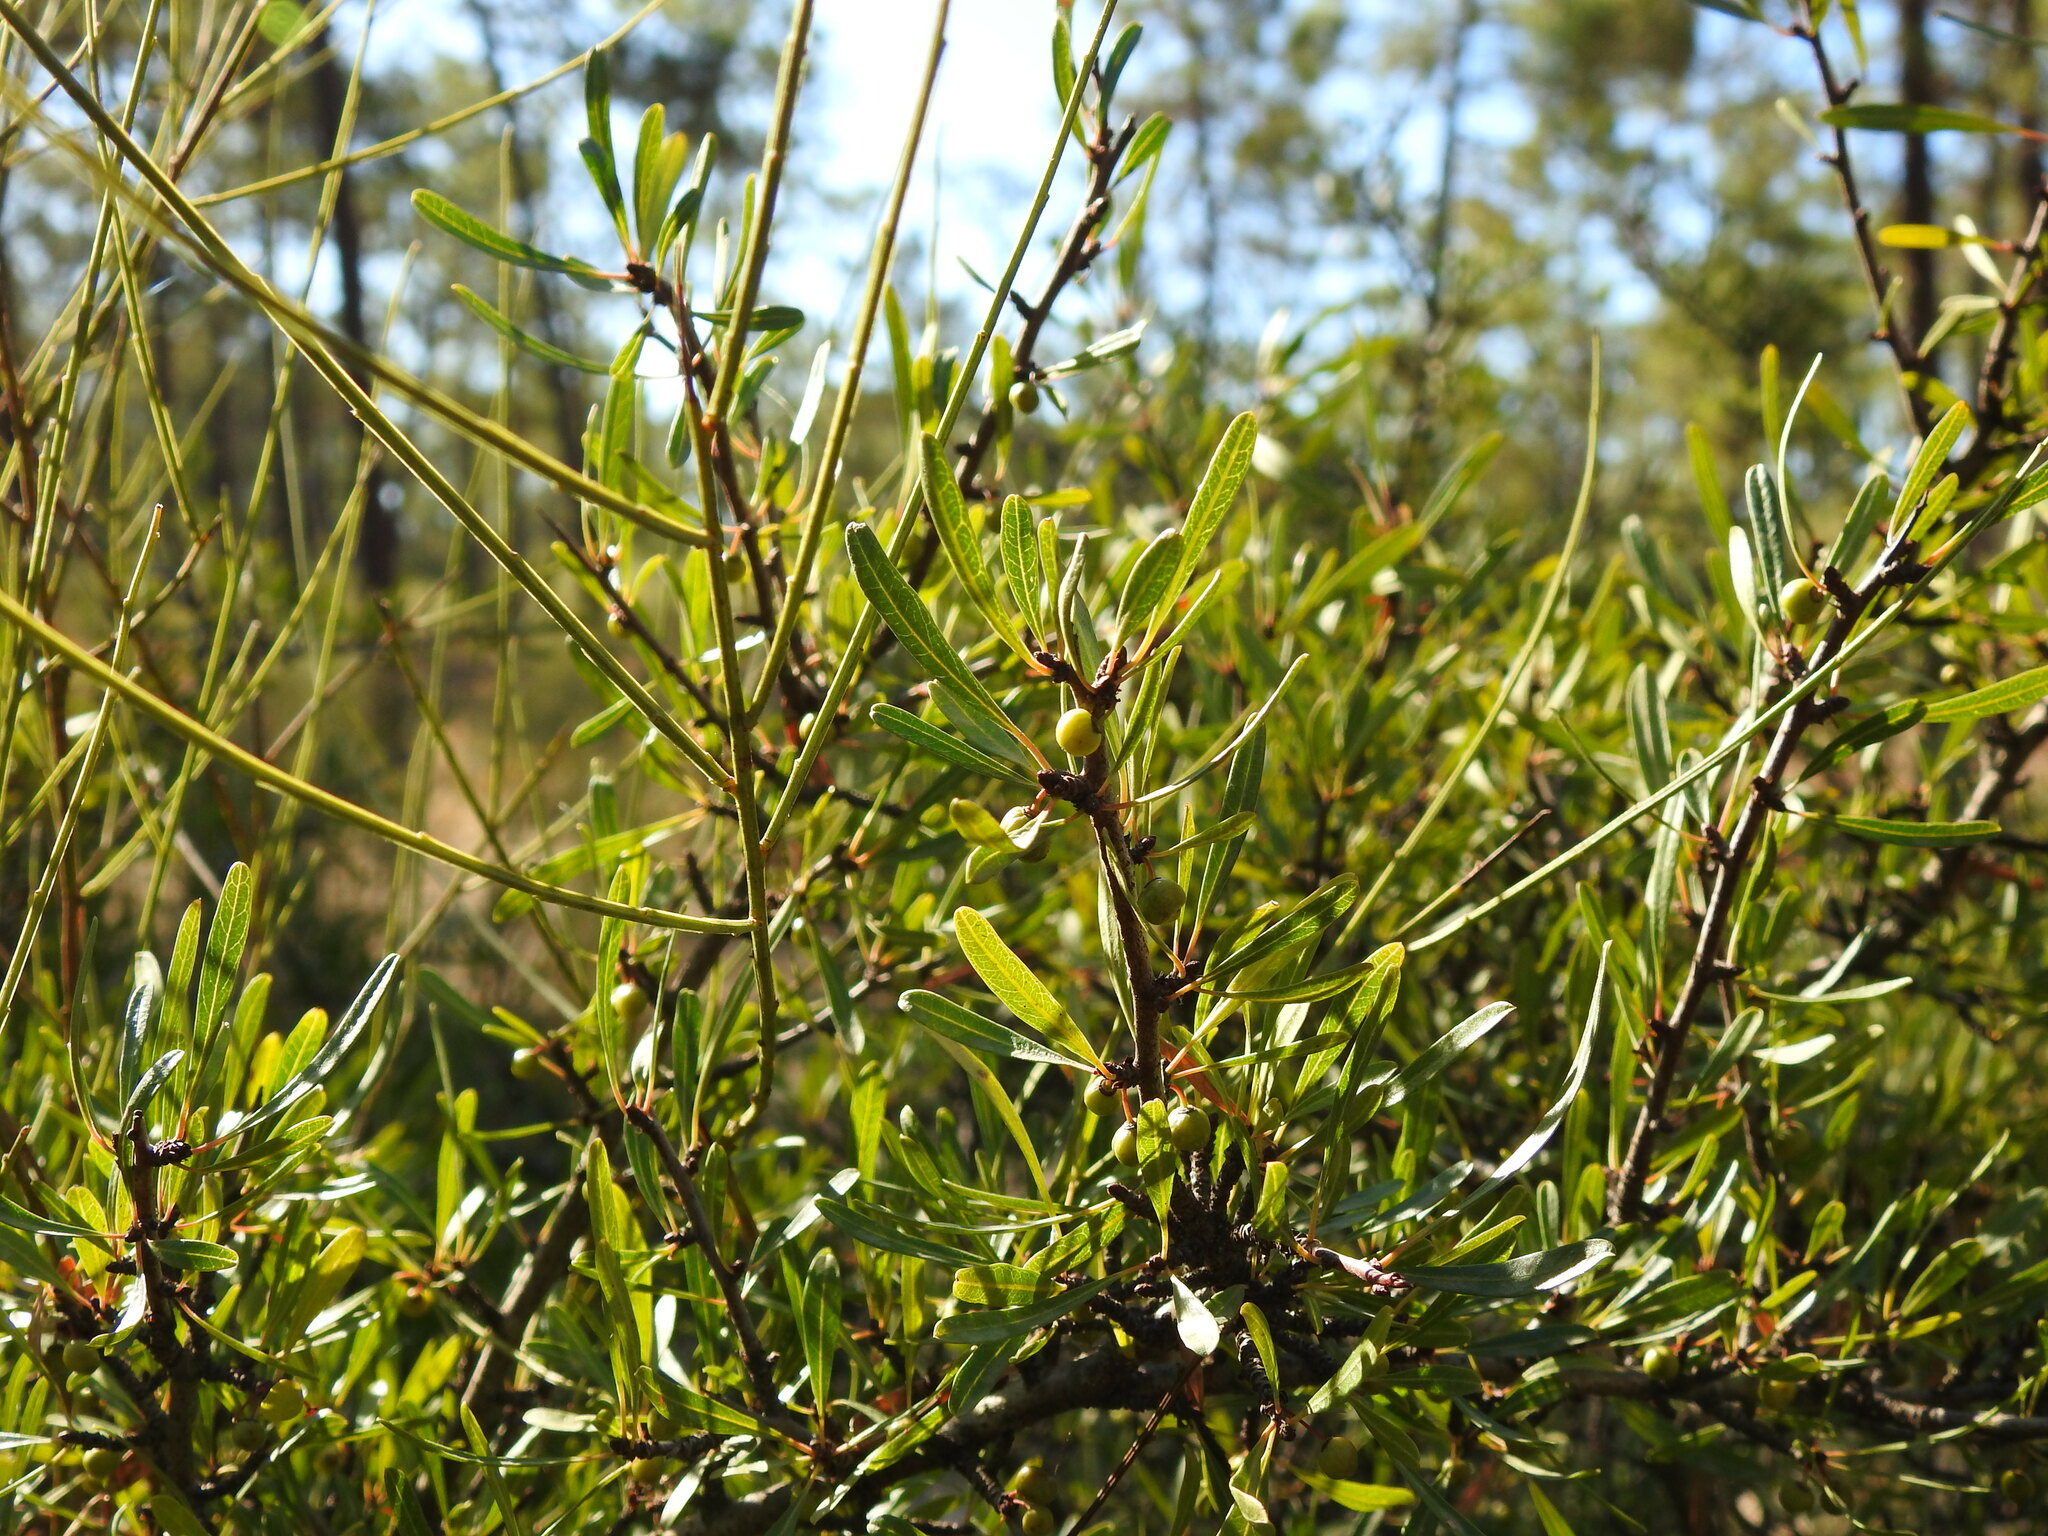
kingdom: Plantae
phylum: Tracheophyta
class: Magnoliopsida
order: Rosales
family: Rhamnaceae
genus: Rhamnus
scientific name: Rhamnus oleoides
